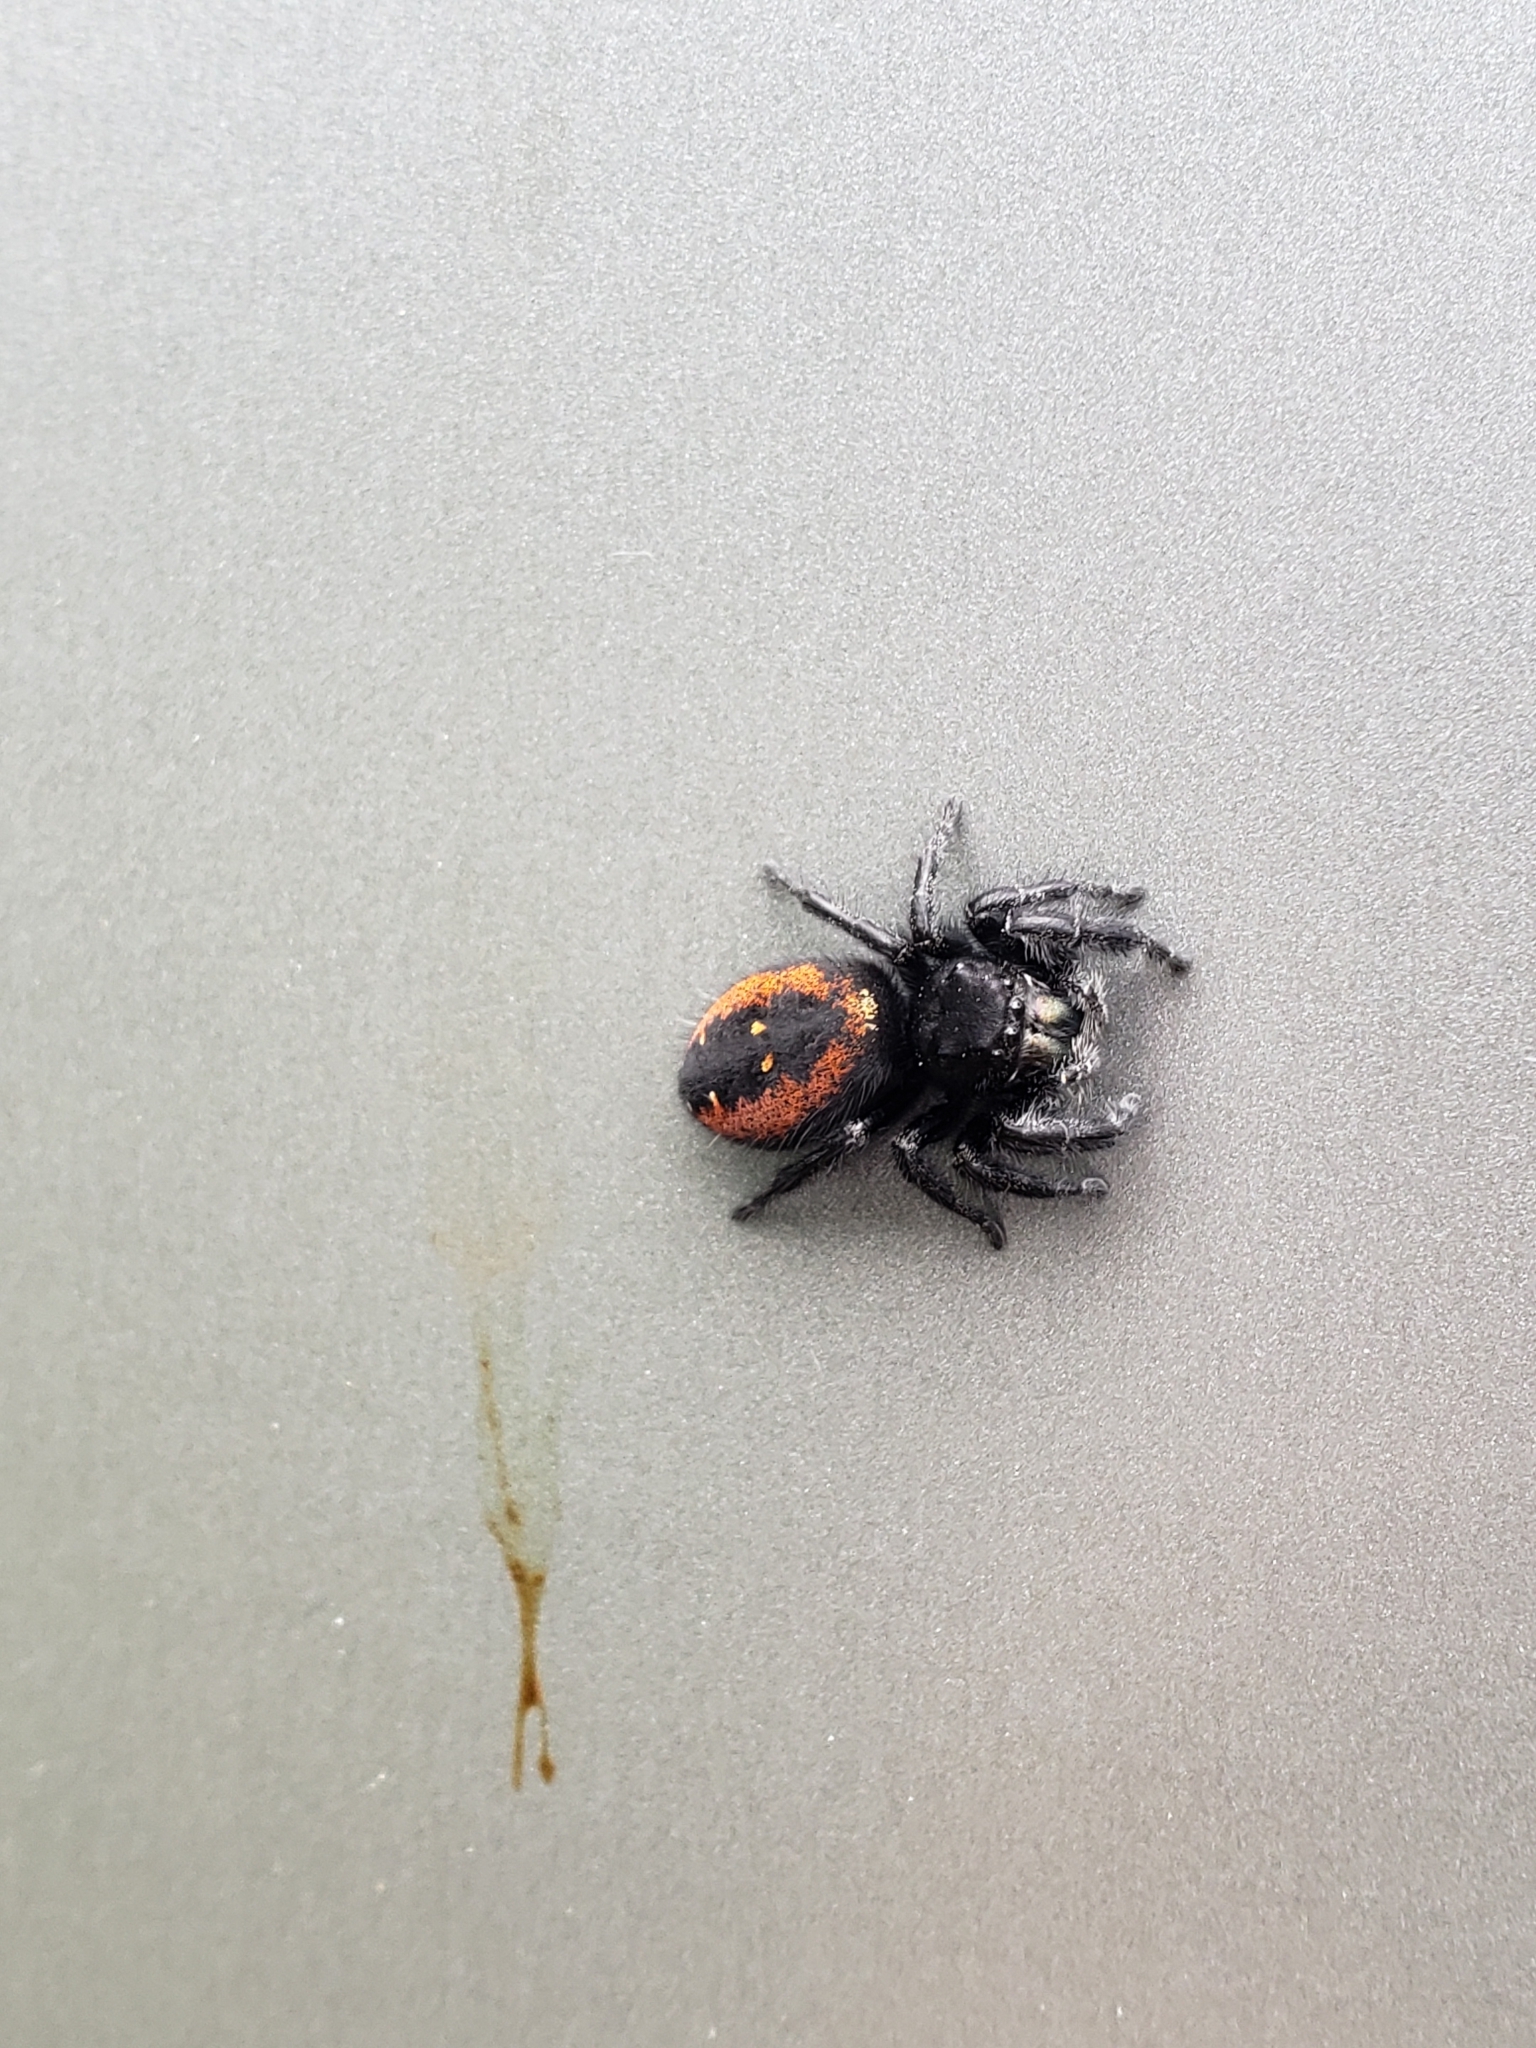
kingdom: Animalia
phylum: Arthropoda
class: Arachnida
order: Araneae
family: Salticidae
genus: Phidippus
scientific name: Phidippus johnsoni
